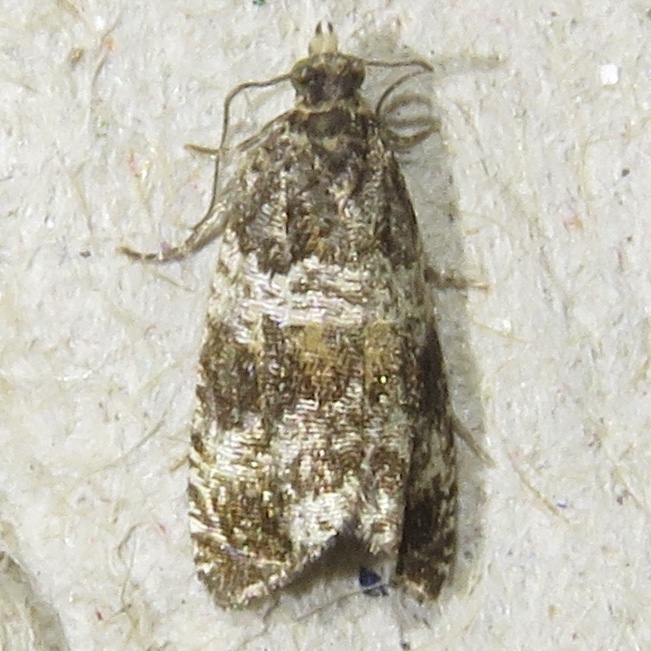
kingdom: Animalia
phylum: Arthropoda
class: Insecta
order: Lepidoptera
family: Tortricidae
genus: Celypha
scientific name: Celypha cespitana
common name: Thyme marble
